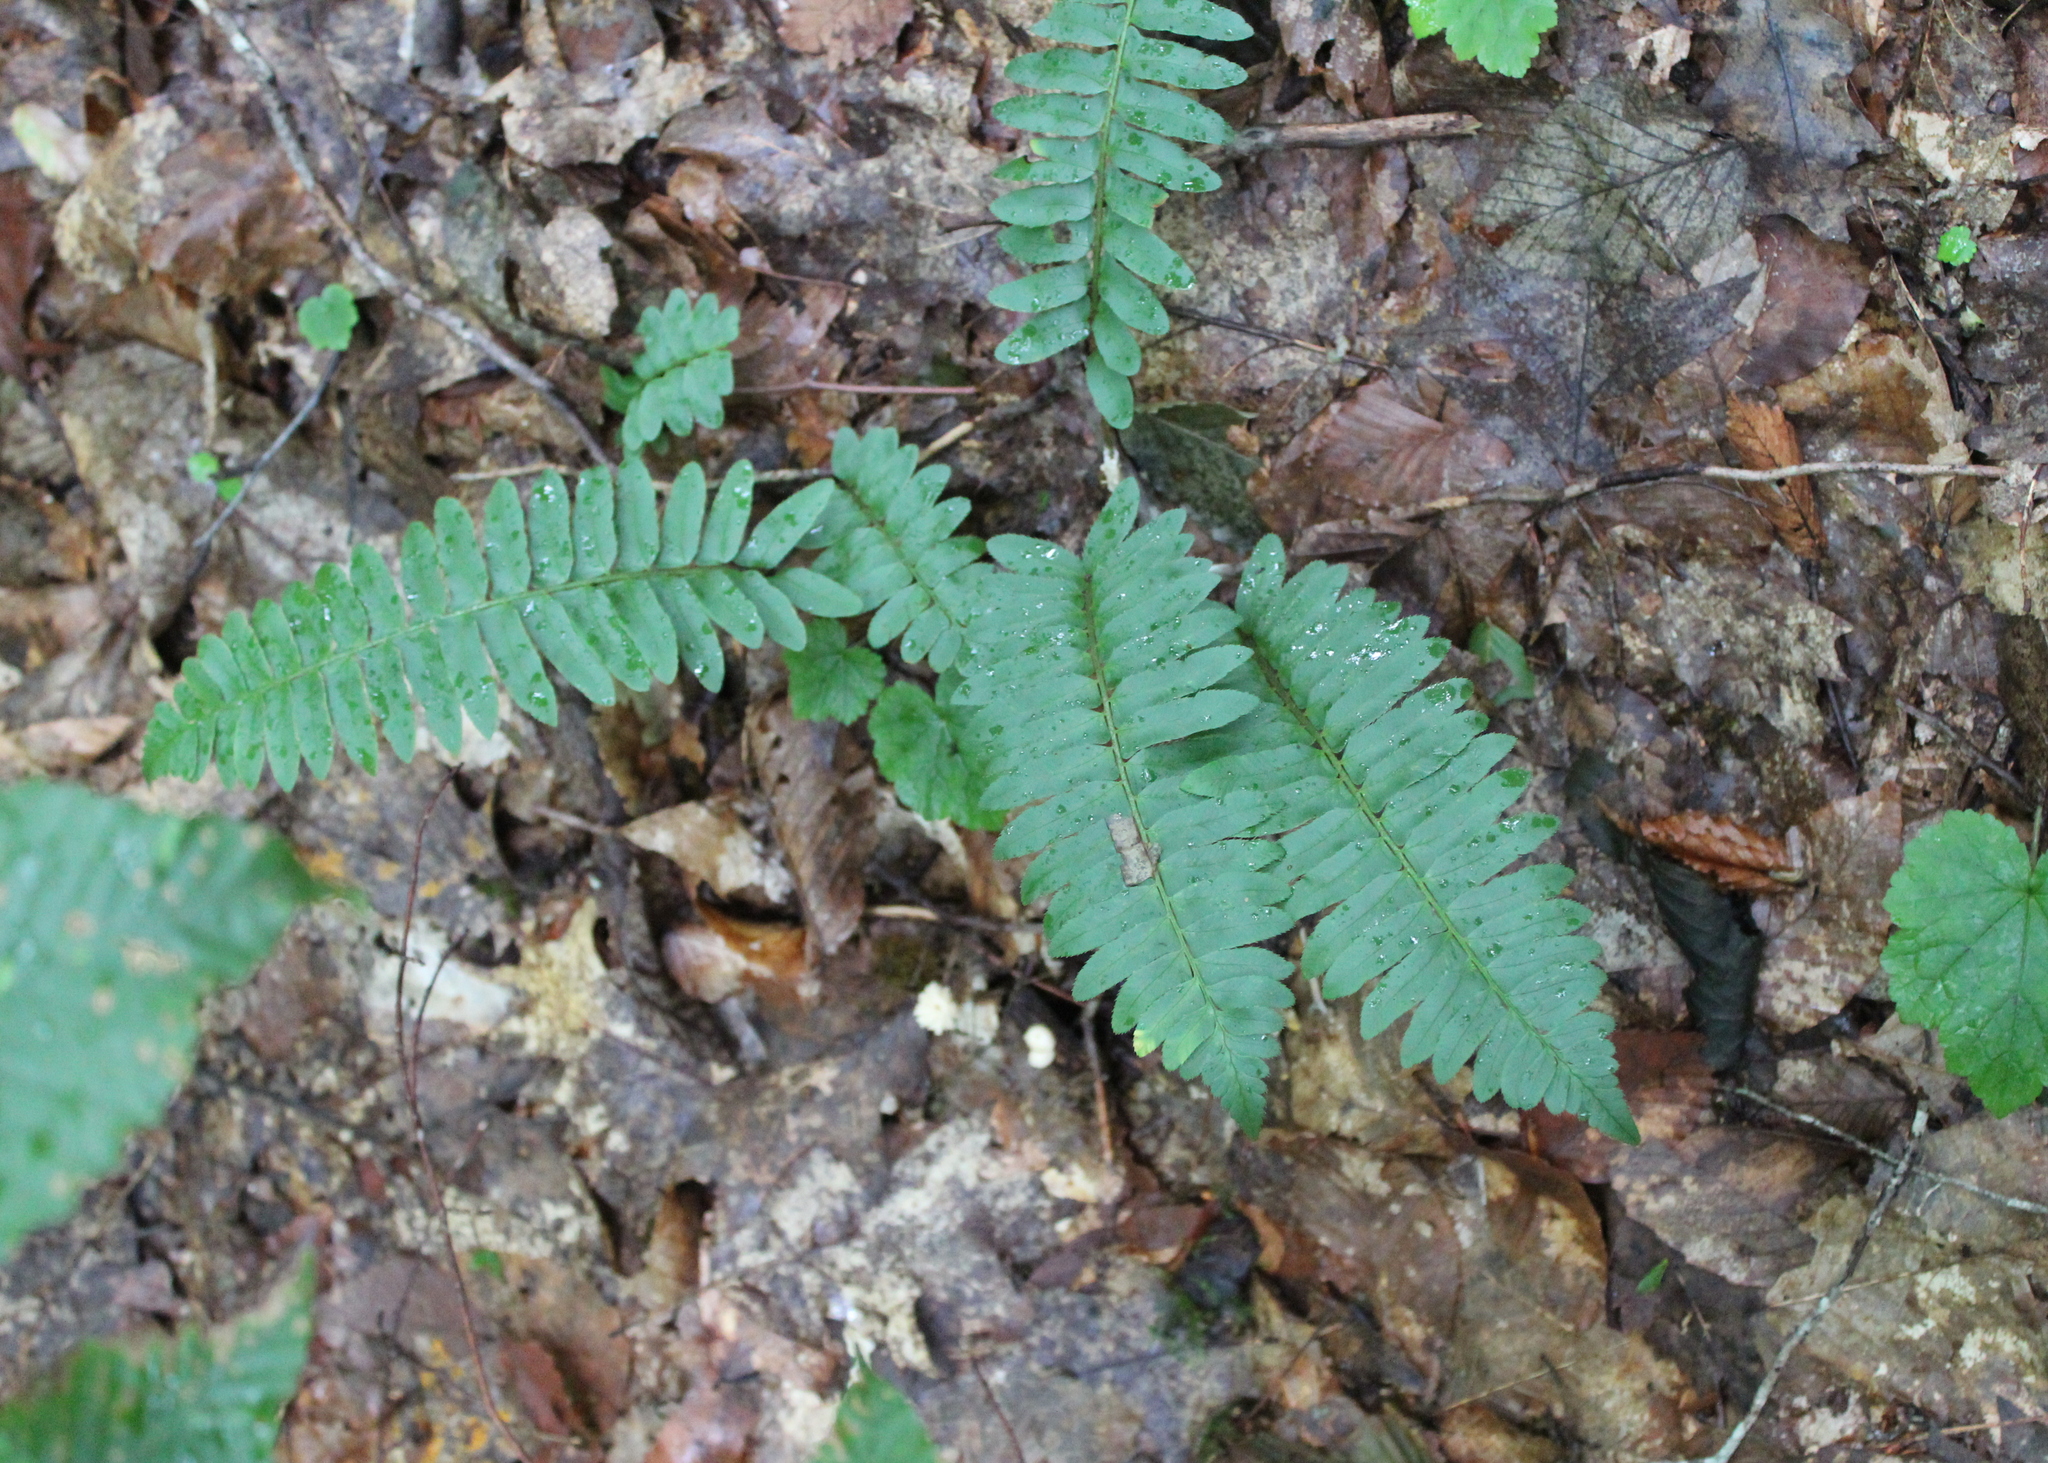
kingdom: Plantae
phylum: Tracheophyta
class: Polypodiopsida
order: Polypodiales
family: Dryopteridaceae
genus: Polystichum
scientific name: Polystichum acrostichoides
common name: Christmas fern
